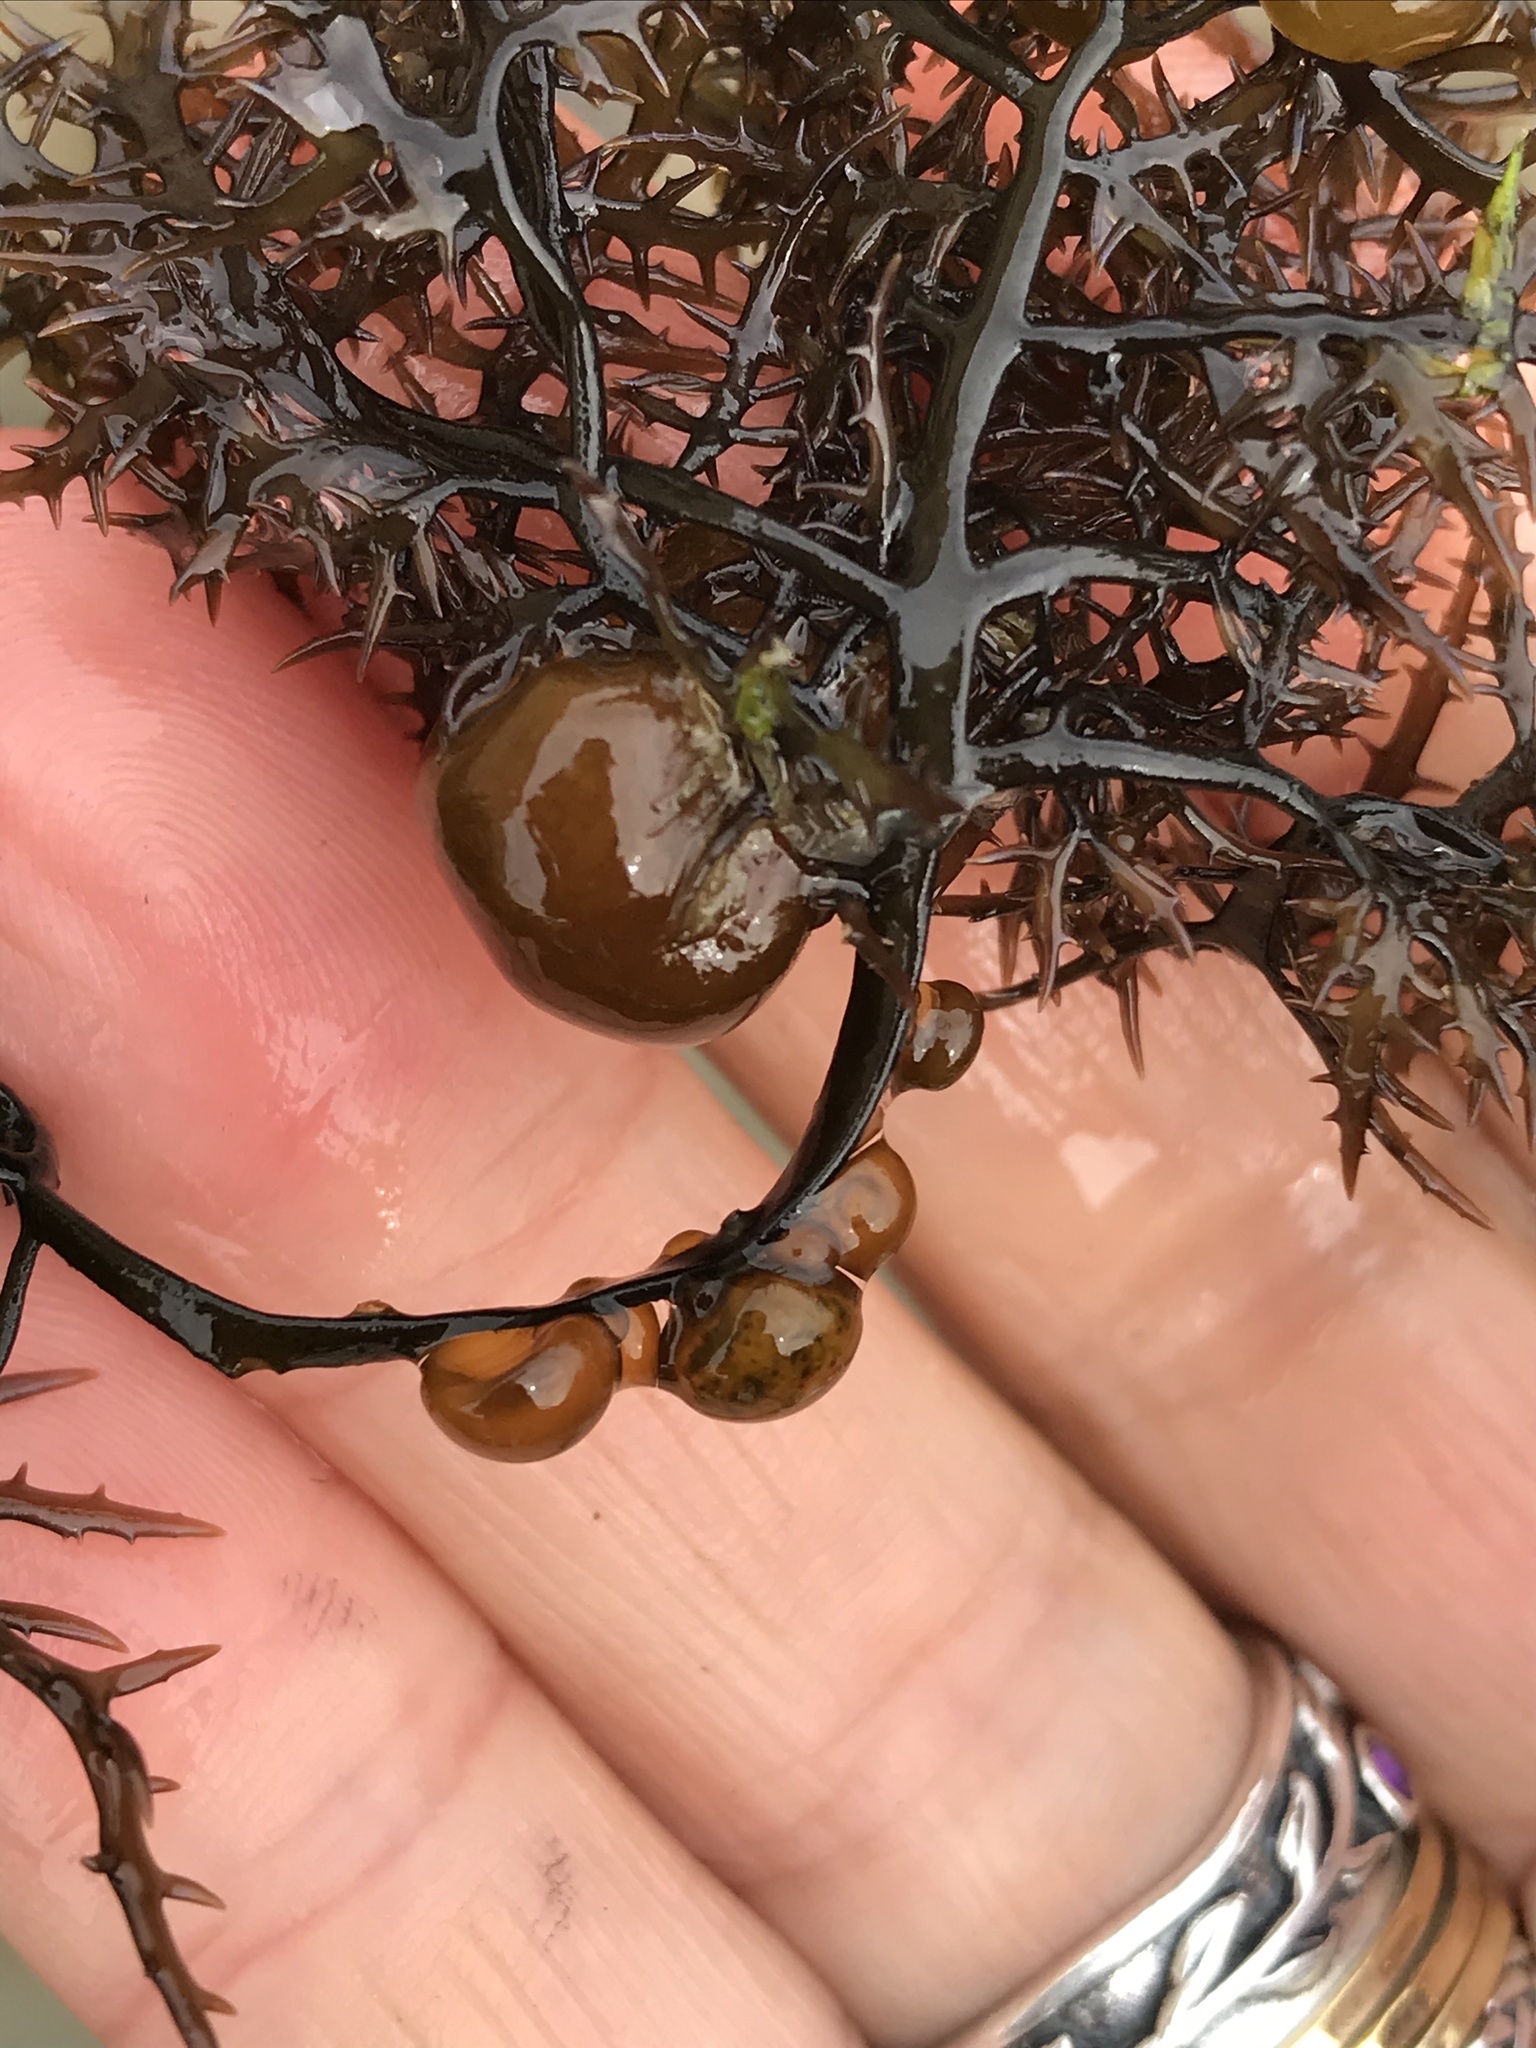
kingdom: Plantae
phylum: Rhodophyta
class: Florideophyceae
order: Gigartinales
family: Gigartinaceae
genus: Chondracanthus
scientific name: Chondracanthus canaliculatus
